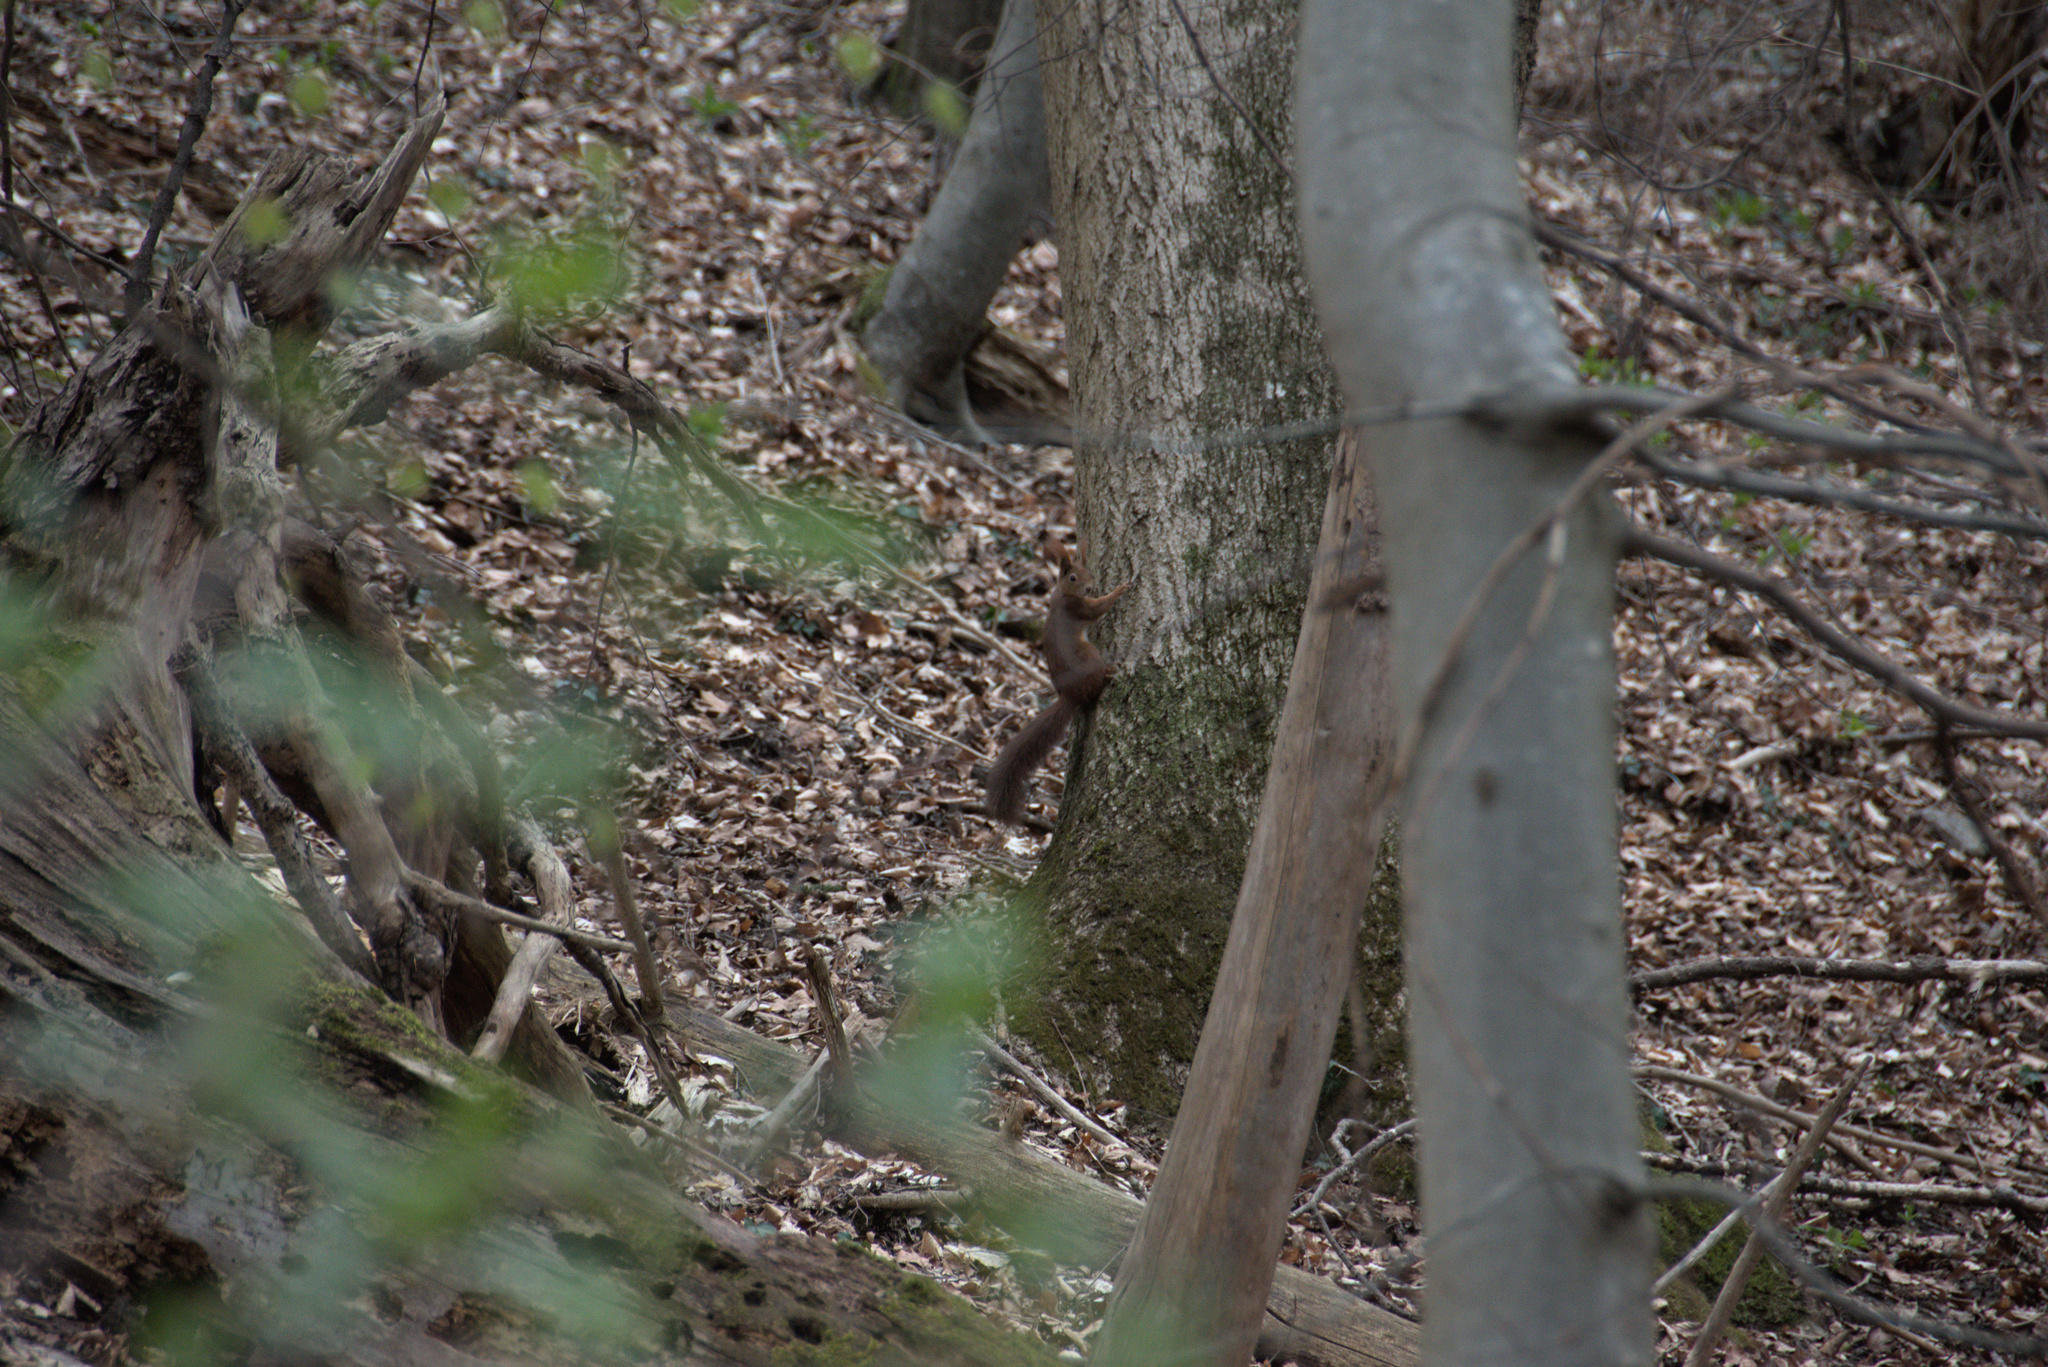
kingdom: Animalia
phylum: Chordata
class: Mammalia
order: Rodentia
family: Sciuridae
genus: Sciurus
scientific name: Sciurus vulgaris
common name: Eurasian red squirrel
